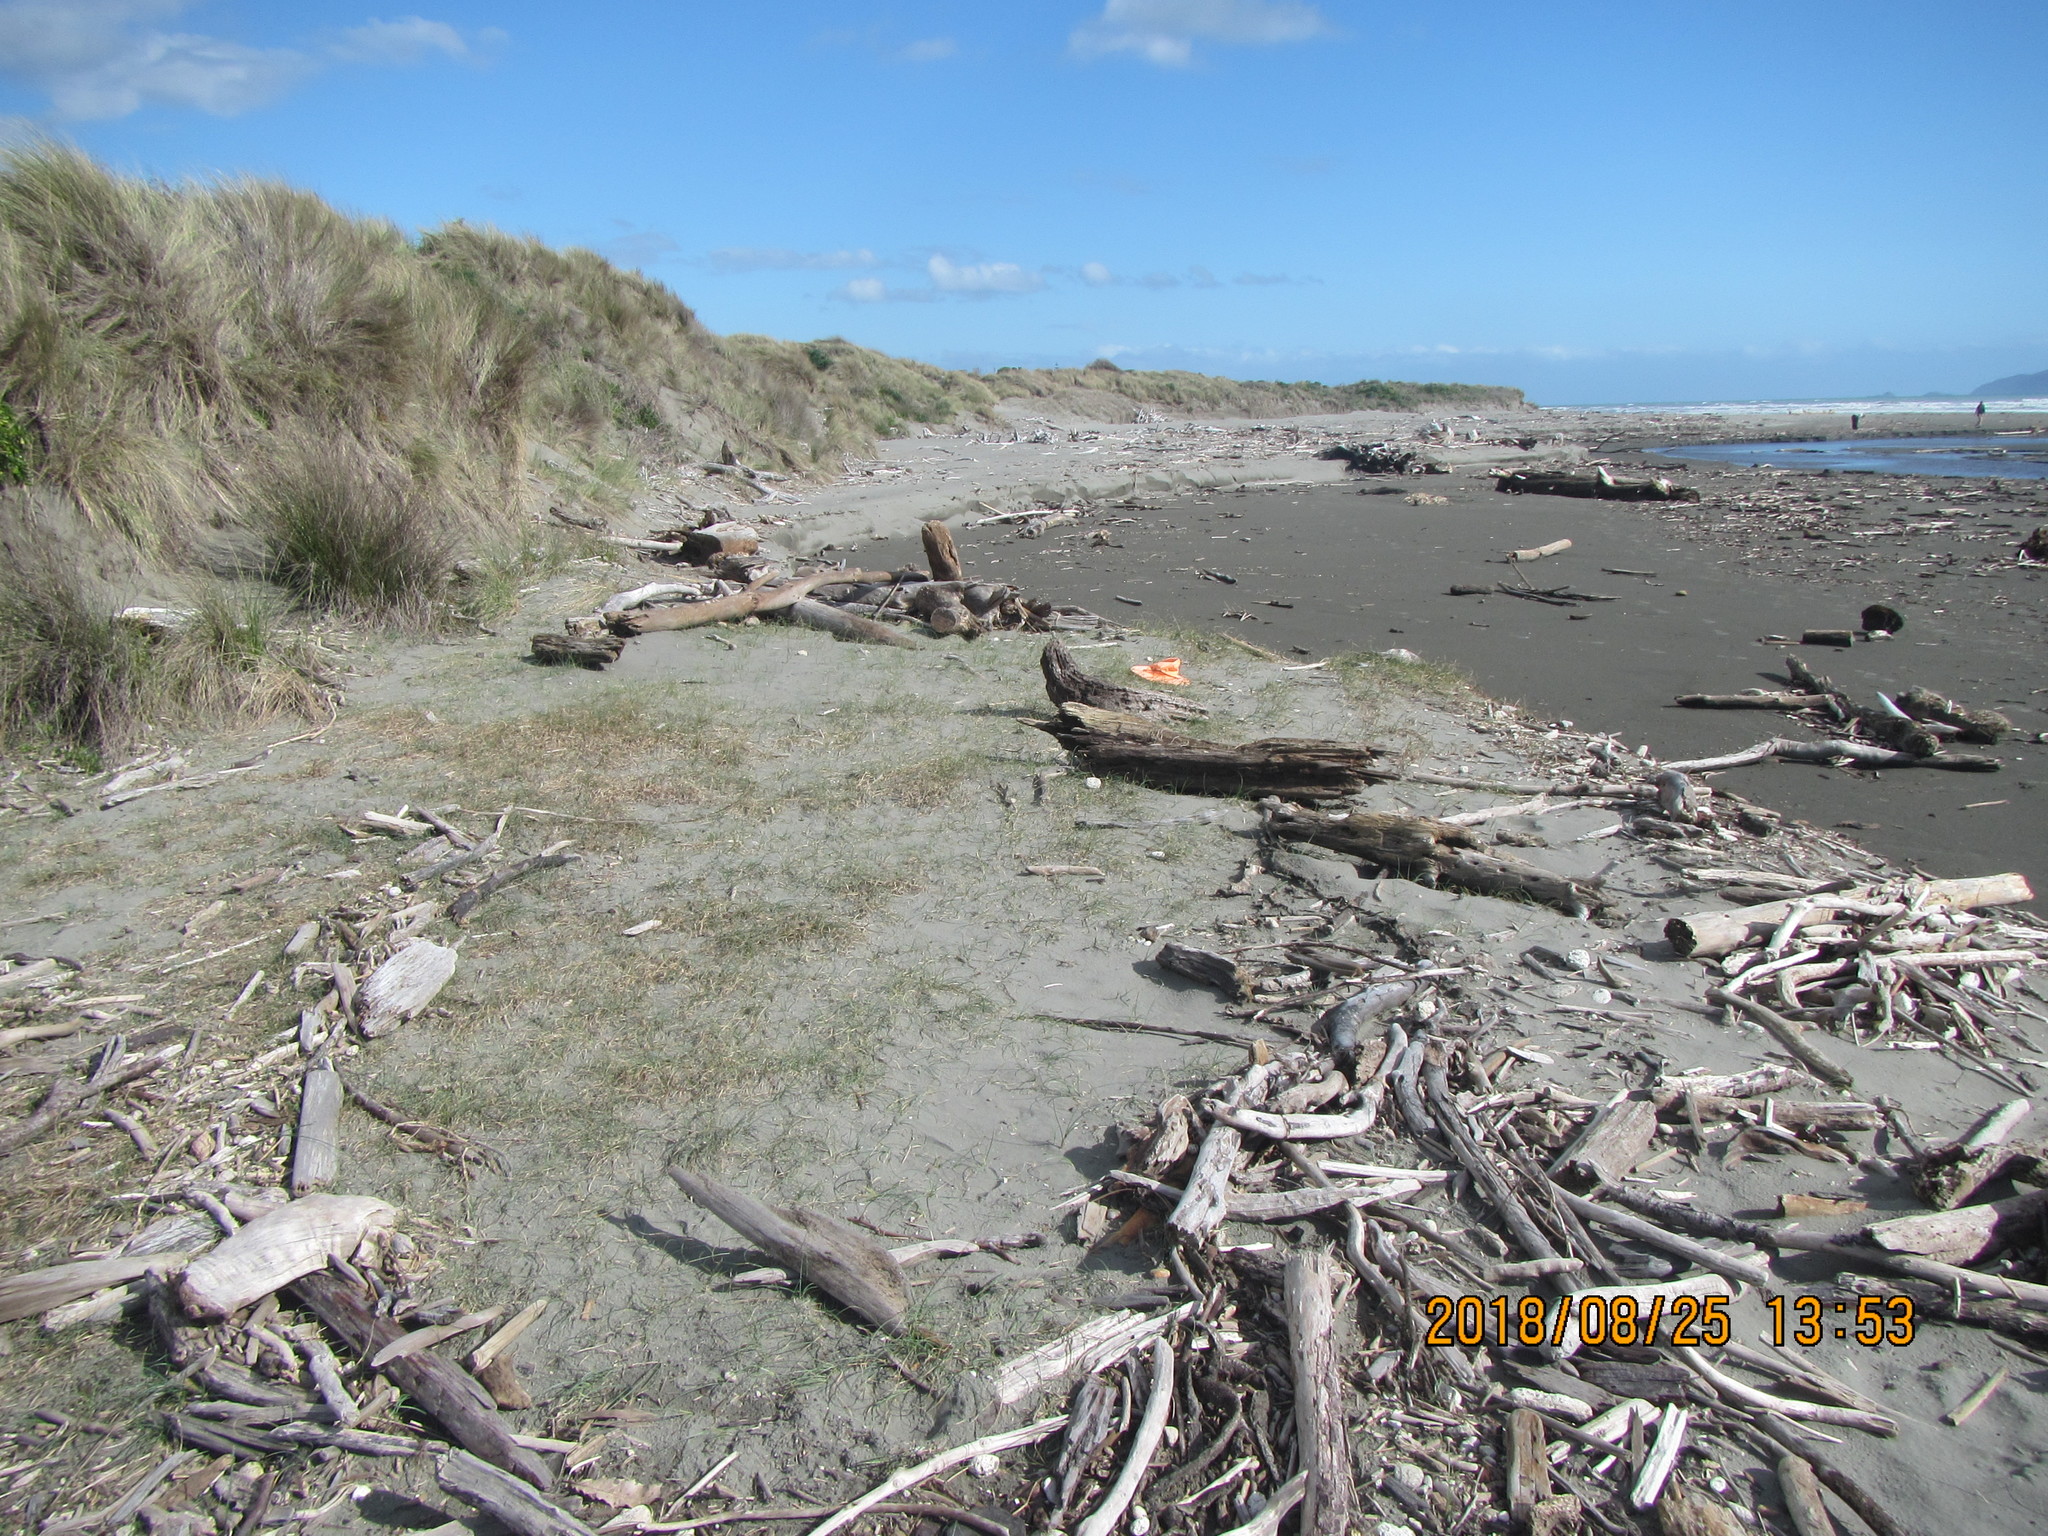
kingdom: Plantae
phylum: Tracheophyta
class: Liliopsida
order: Poales
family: Cyperaceae
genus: Carex
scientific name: Carex pumila
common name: Dwarf sedge
